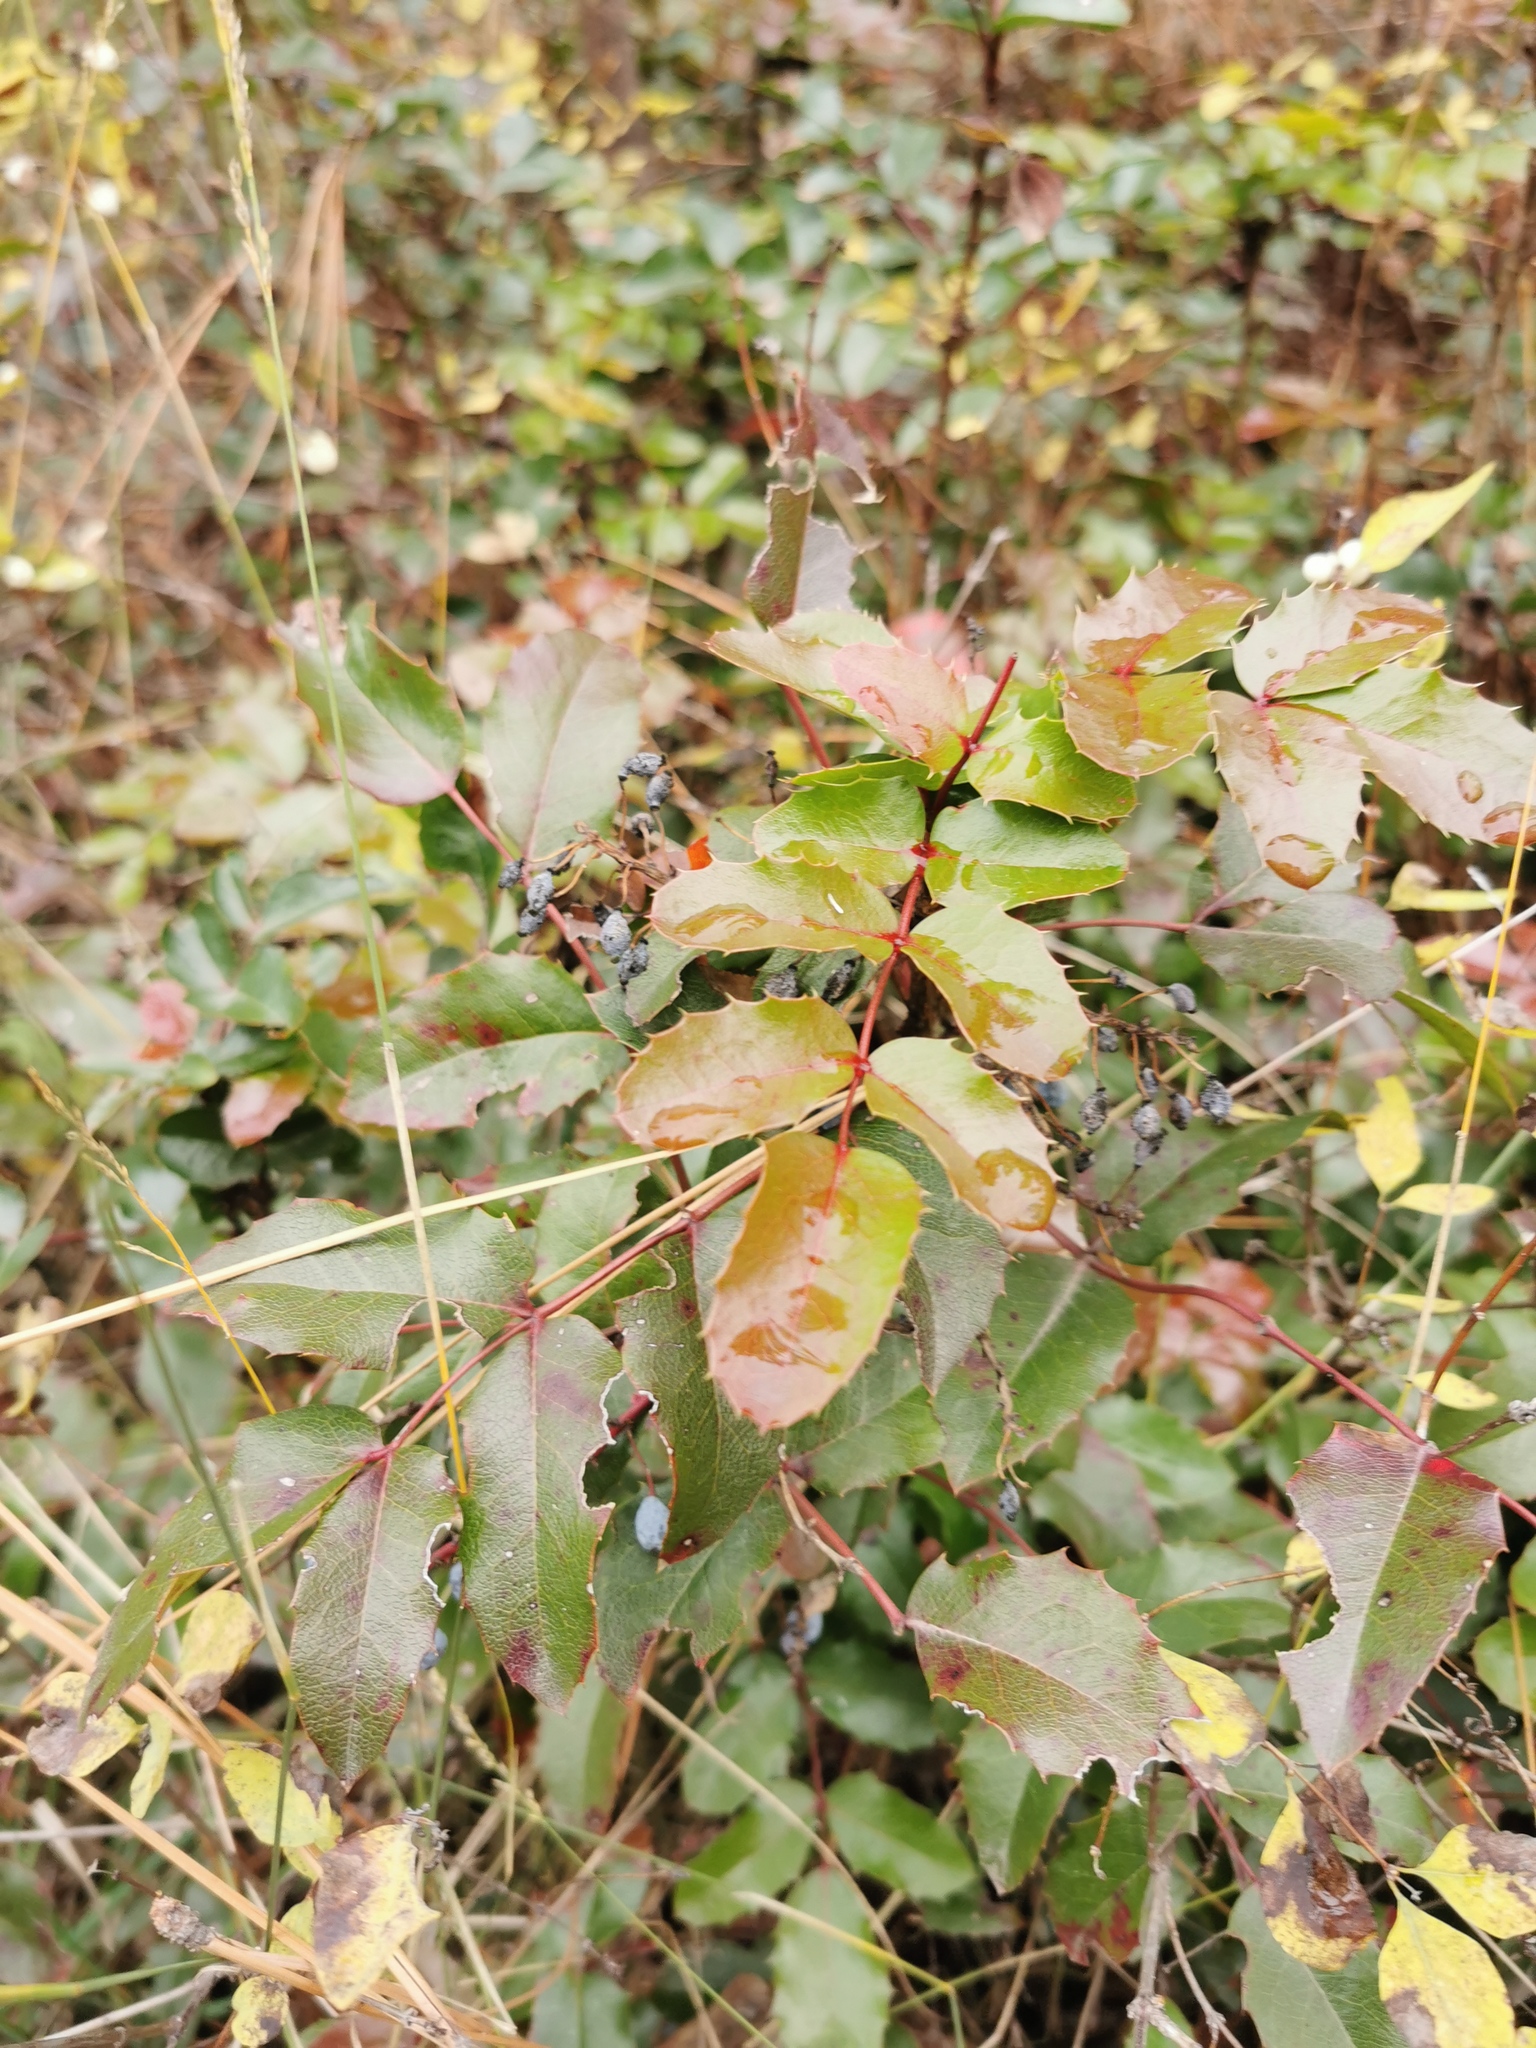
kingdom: Plantae
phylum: Tracheophyta
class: Magnoliopsida
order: Ranunculales
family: Berberidaceae
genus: Mahonia
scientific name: Mahonia aquifolium
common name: Oregon-grape
